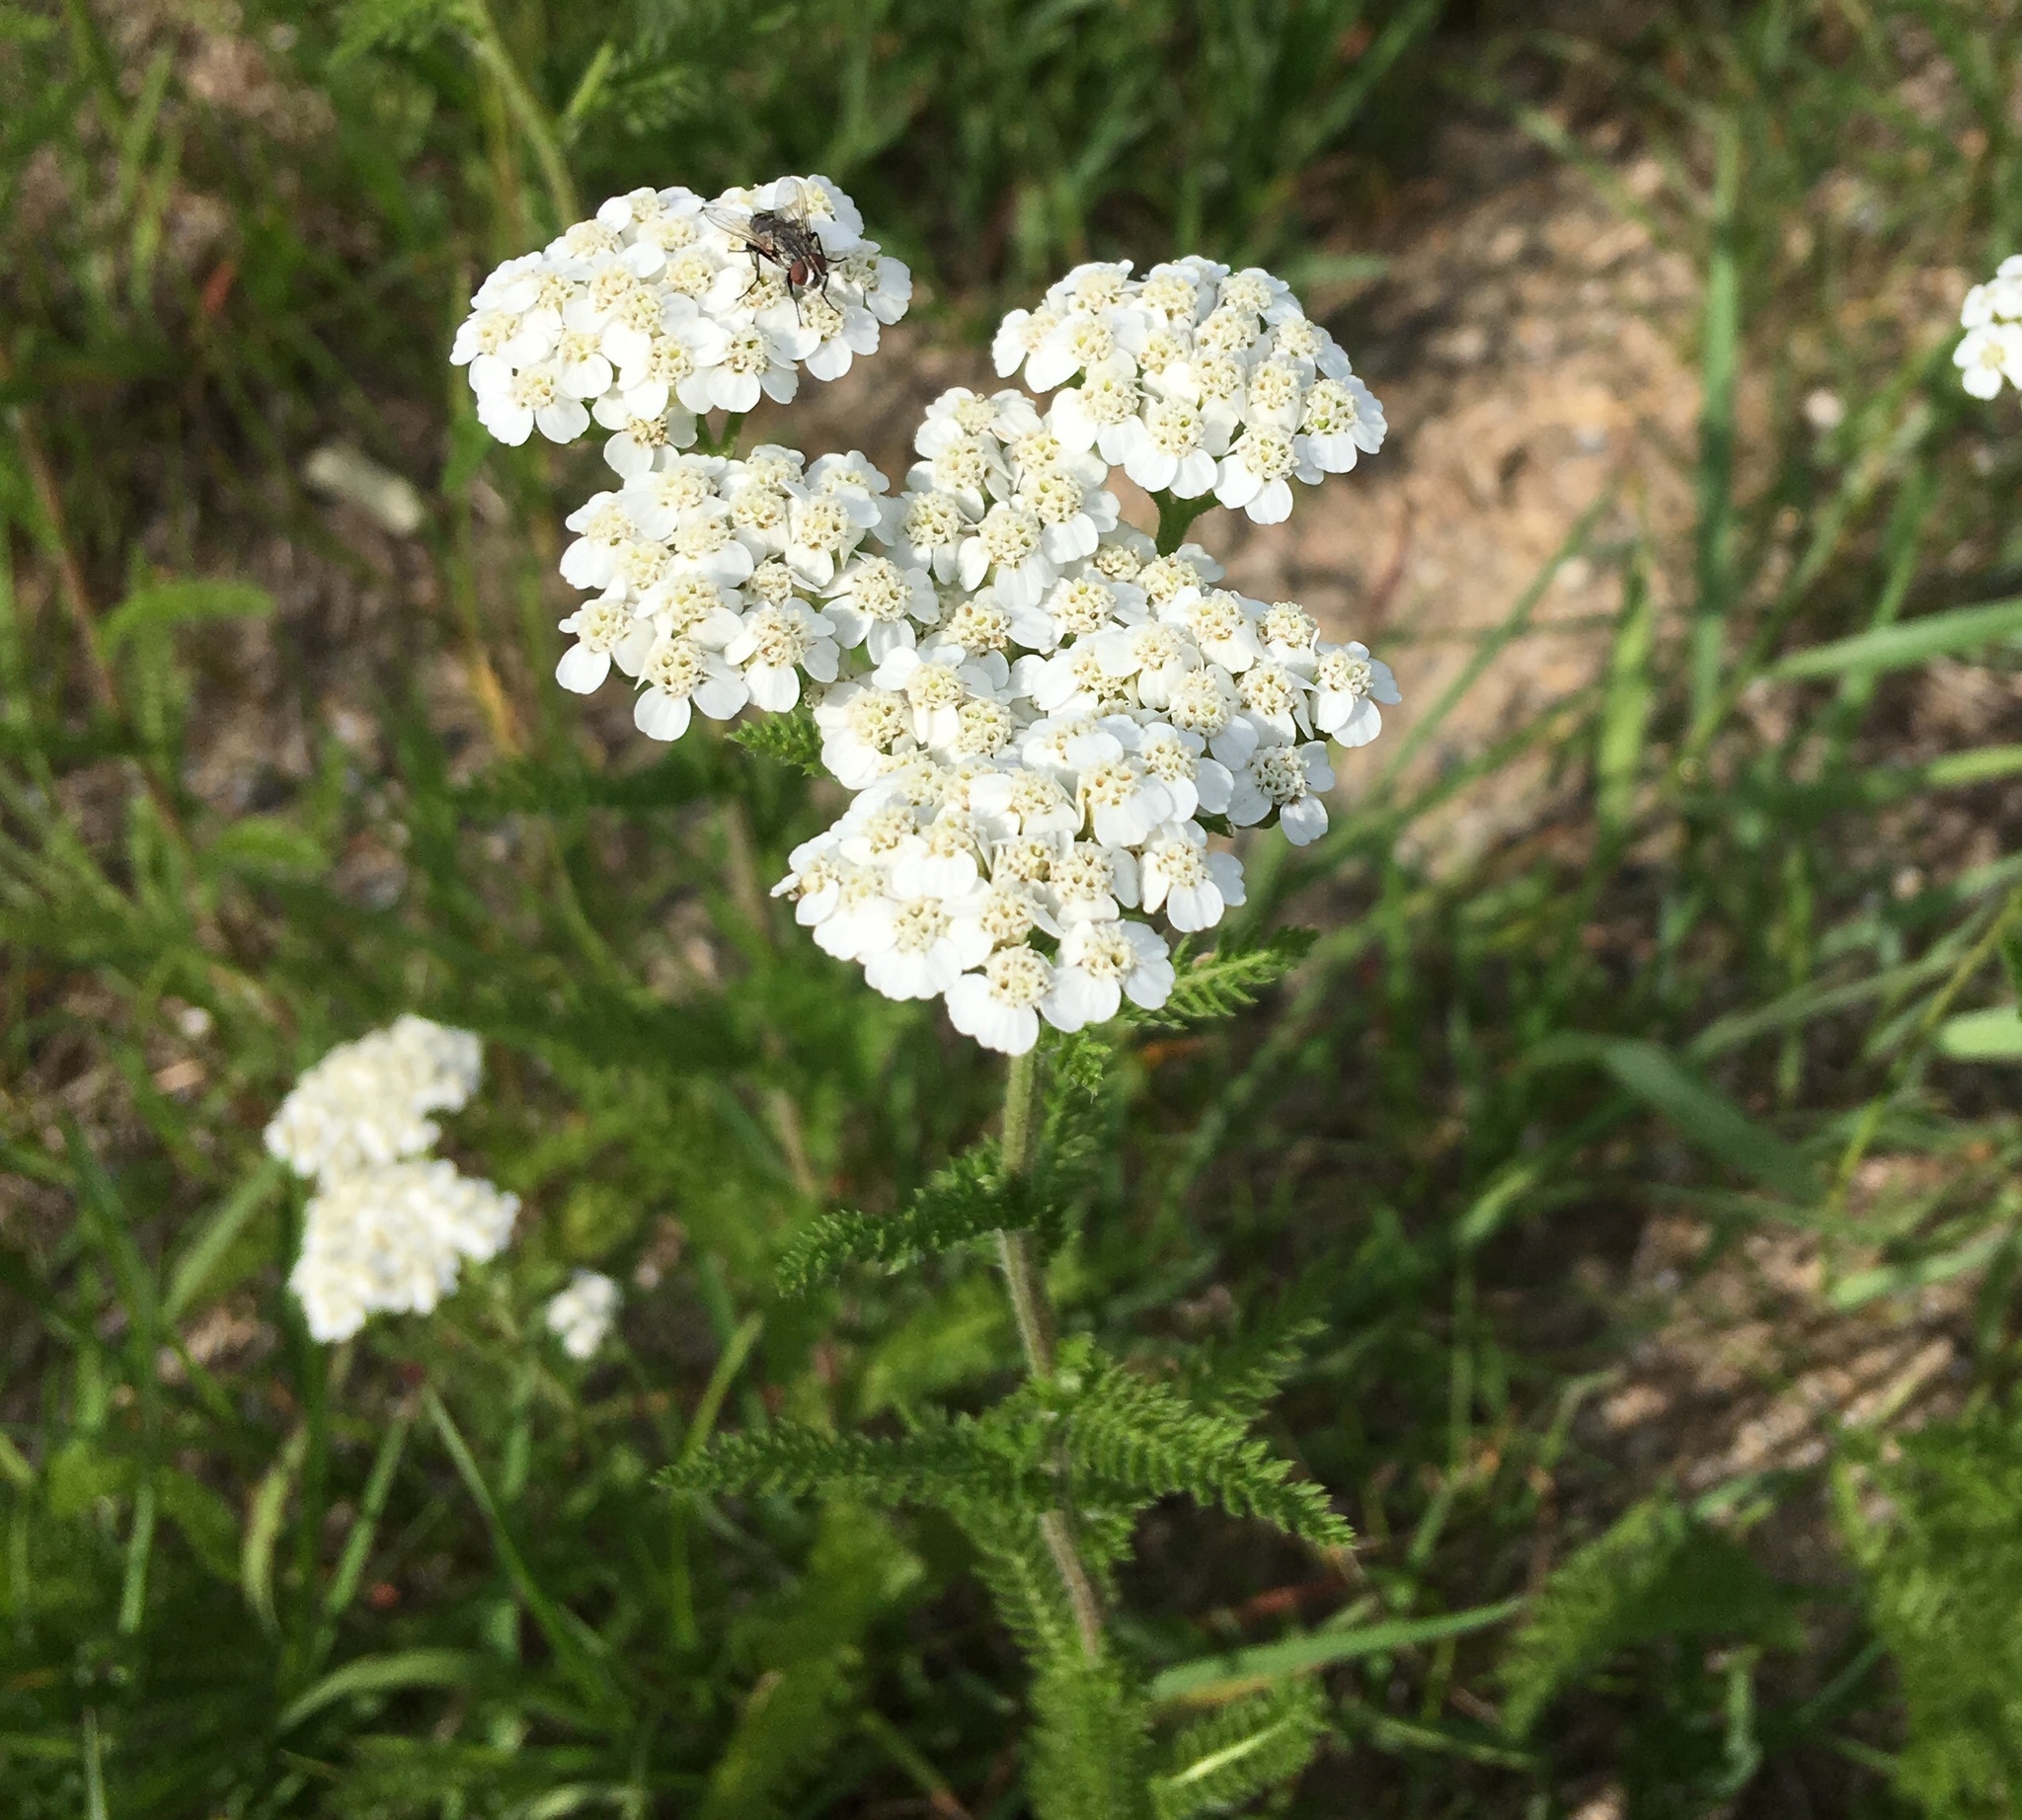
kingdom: Plantae
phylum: Tracheophyta
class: Magnoliopsida
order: Asterales
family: Asteraceae
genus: Achillea
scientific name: Achillea millefolium
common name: Yarrow
